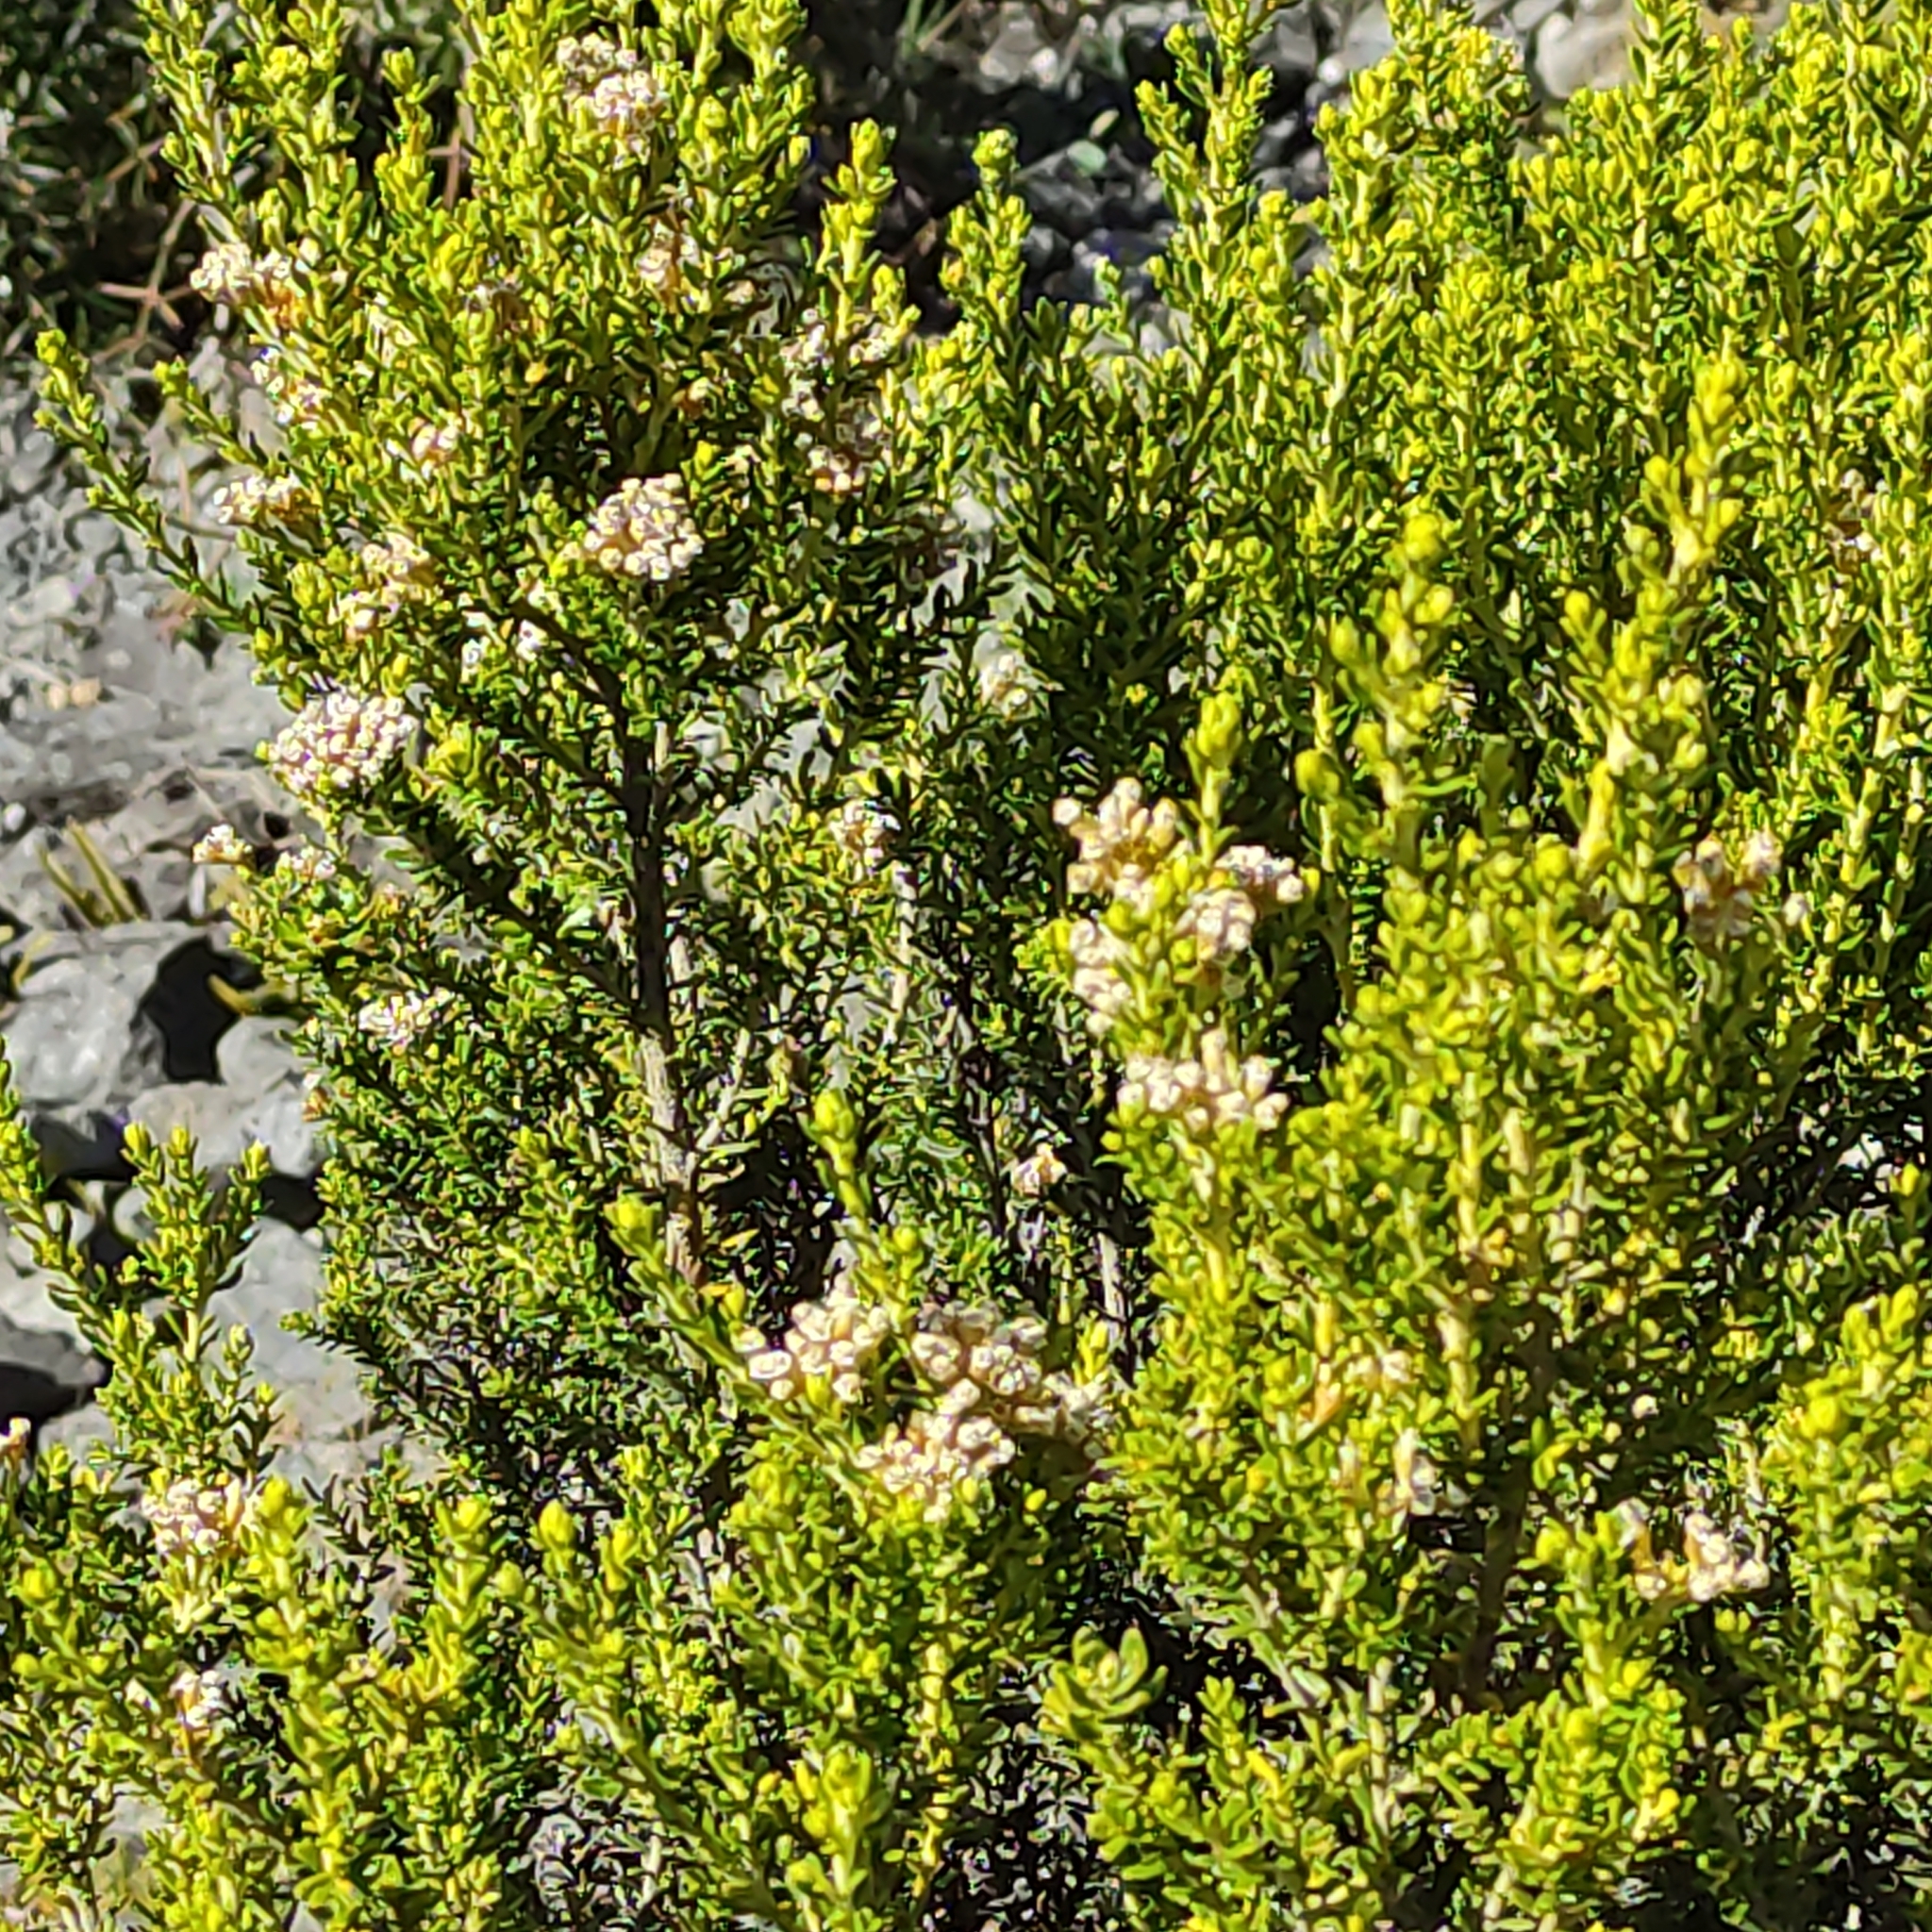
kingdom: Plantae
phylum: Tracheophyta
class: Magnoliopsida
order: Asterales
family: Asteraceae
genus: Ozothamnus
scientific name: Ozothamnus leptophyllus
